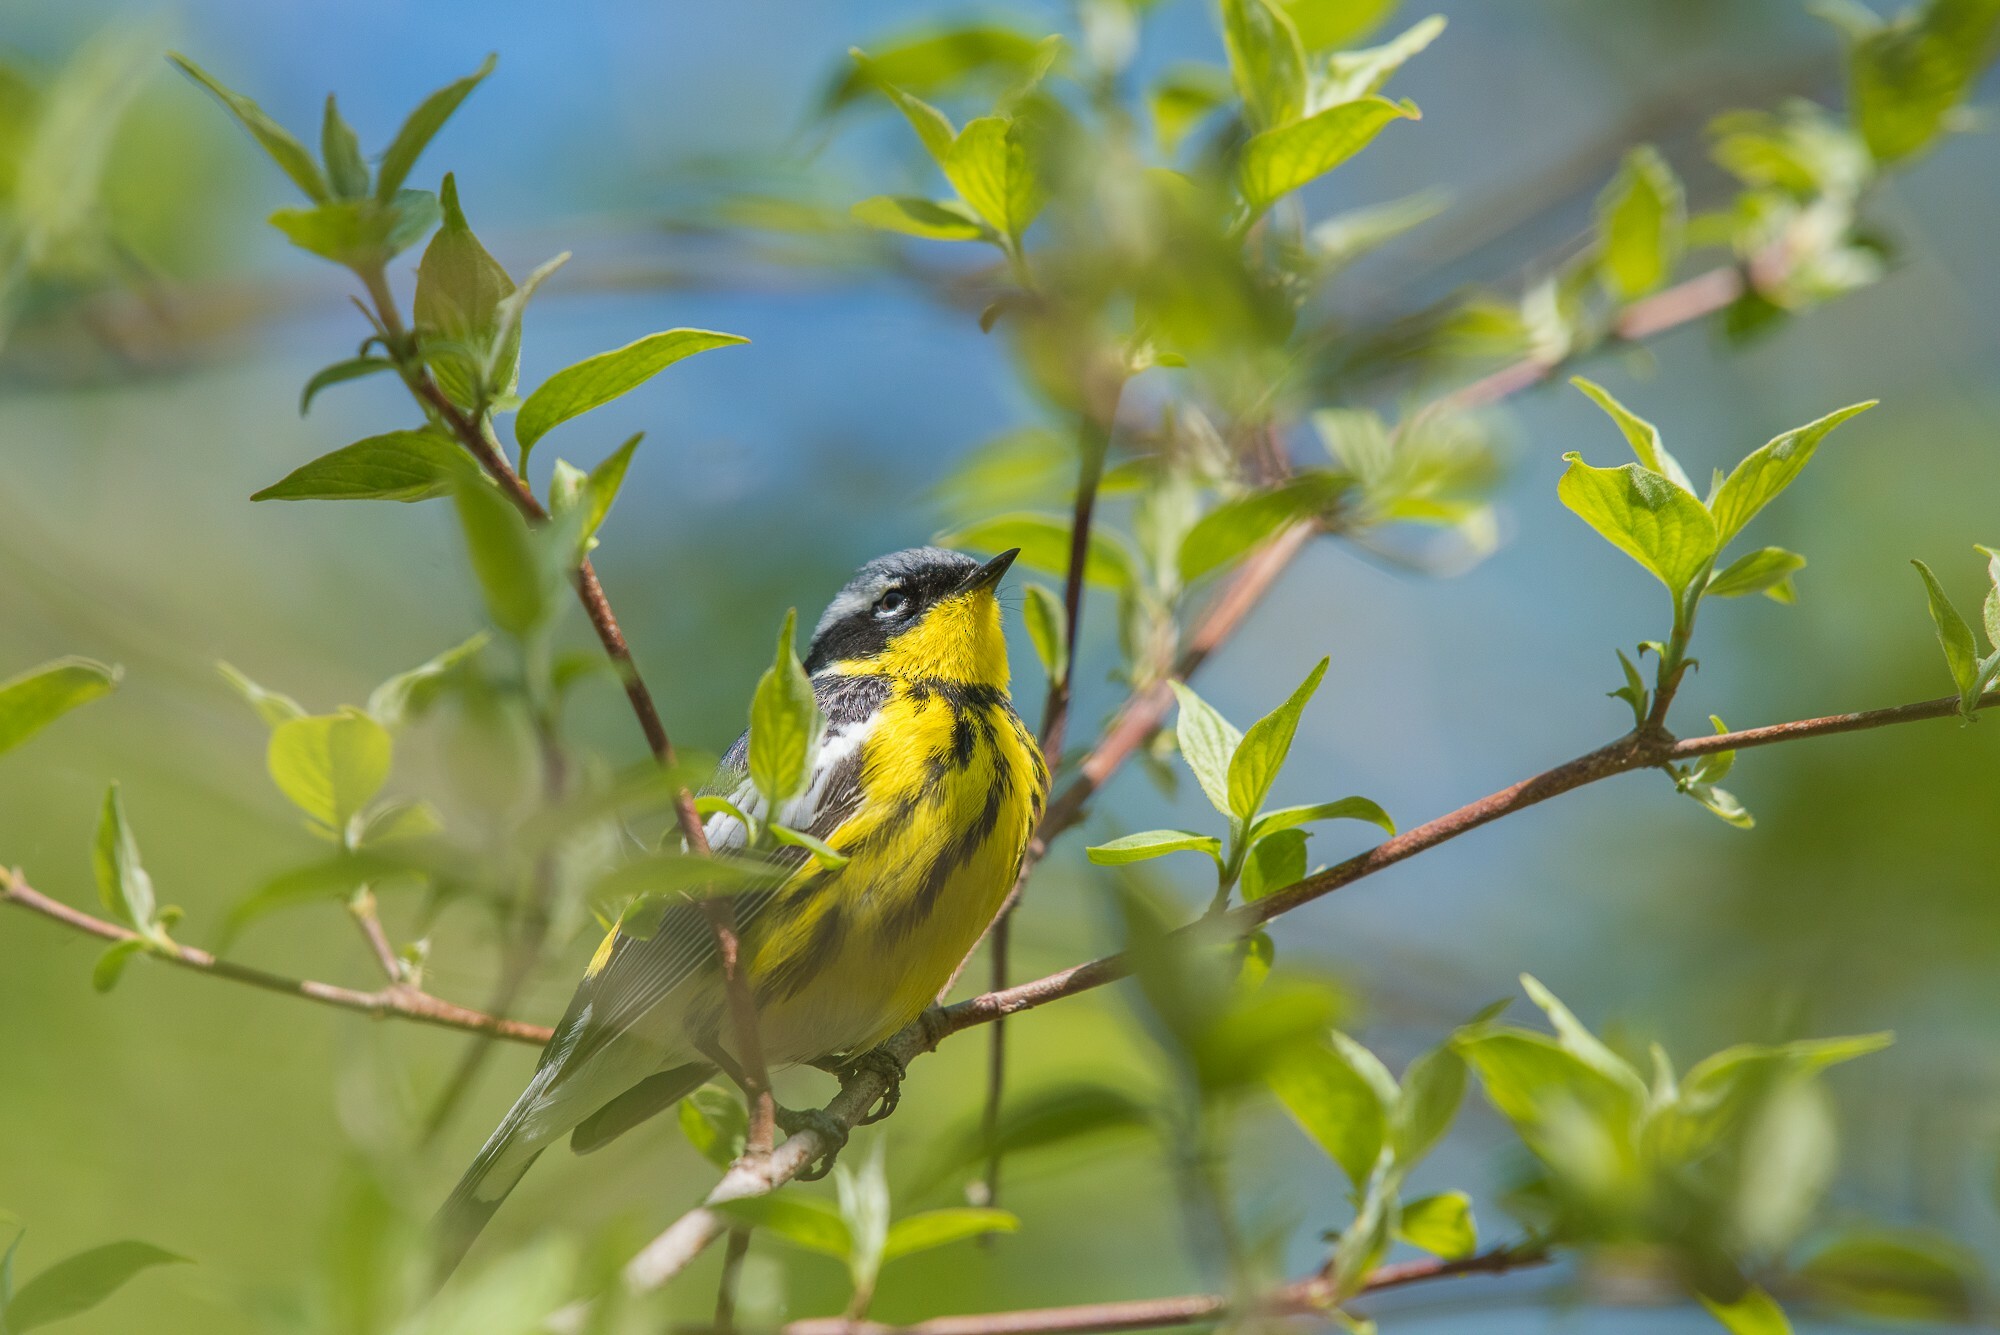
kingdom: Animalia
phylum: Chordata
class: Aves
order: Passeriformes
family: Parulidae
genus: Setophaga
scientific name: Setophaga magnolia
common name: Magnolia warbler
